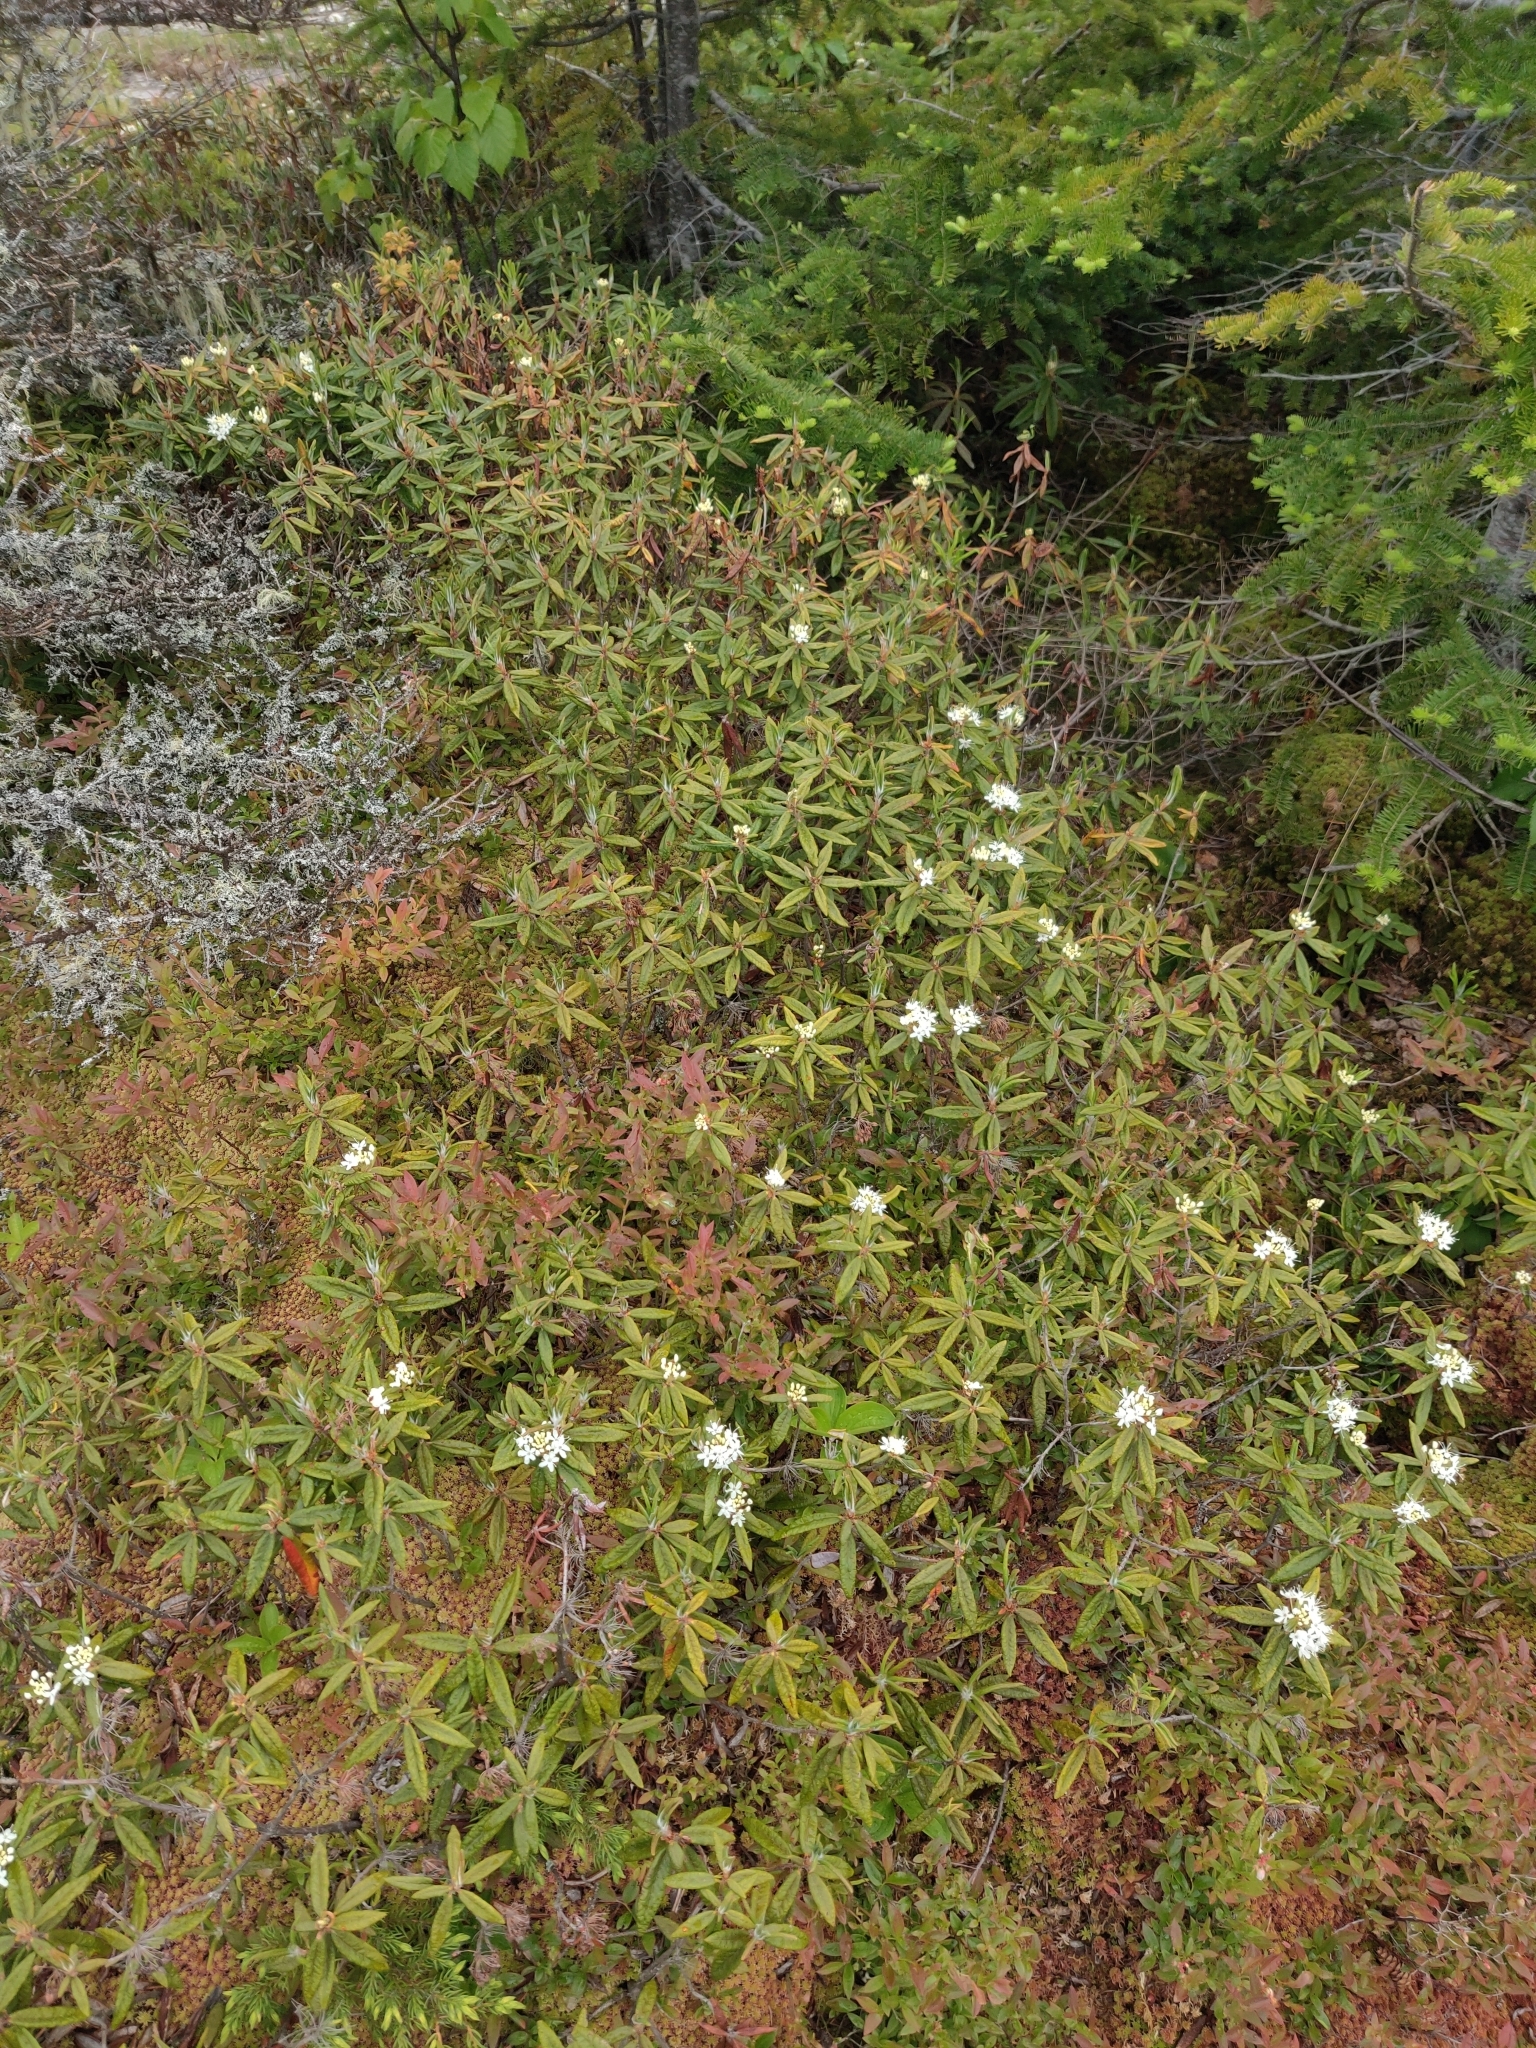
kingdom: Plantae
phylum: Tracheophyta
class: Magnoliopsida
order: Ericales
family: Ericaceae
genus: Rhododendron
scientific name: Rhododendron groenlandicum
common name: Bog labrador tea
